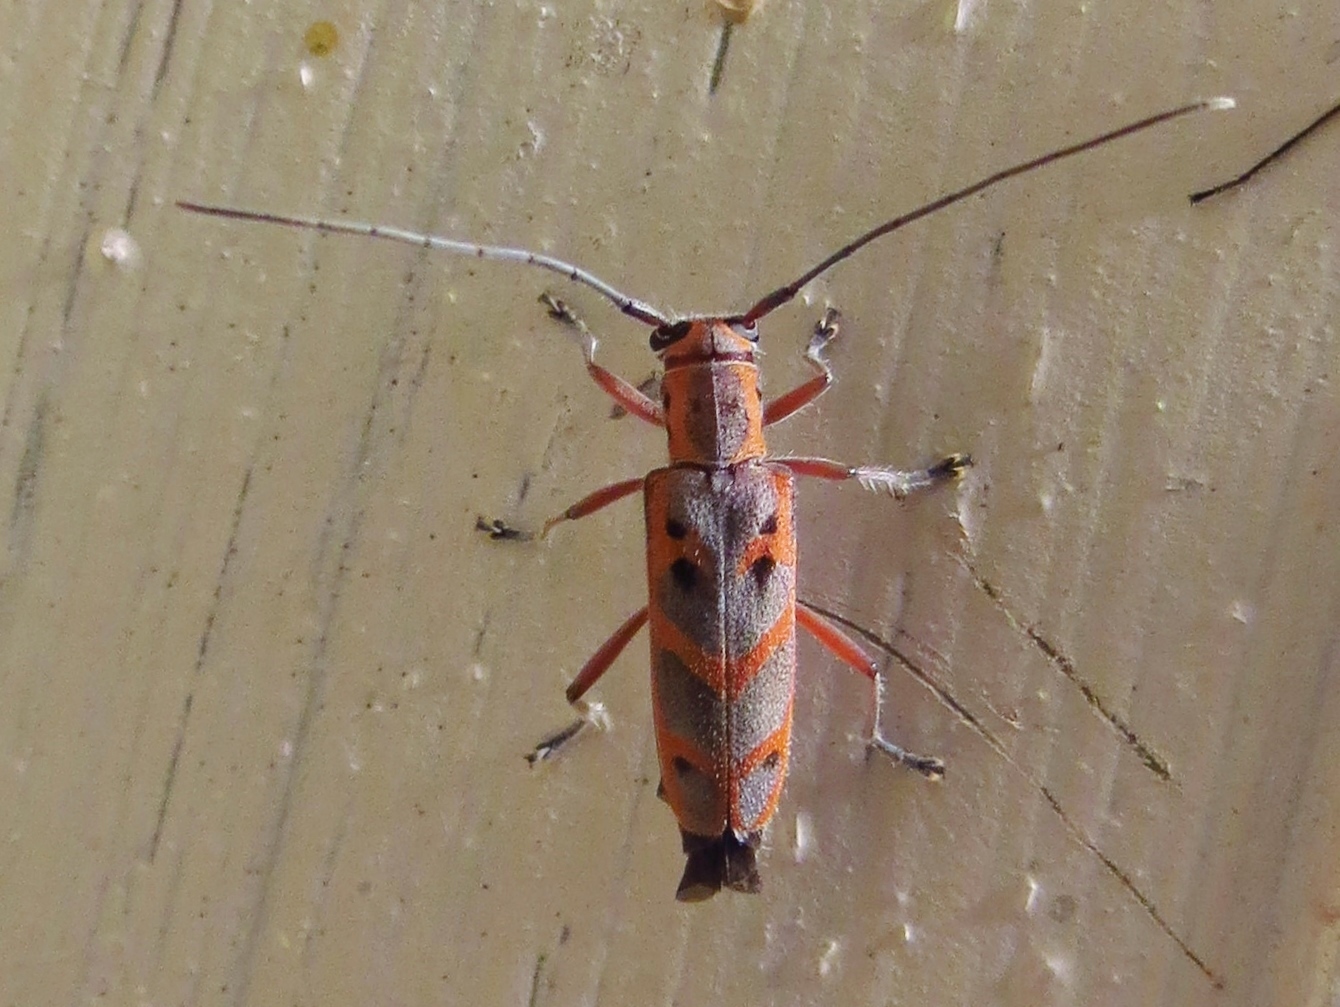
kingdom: Animalia
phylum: Arthropoda
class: Insecta
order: Coleoptera
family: Cerambycidae
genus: Saperda
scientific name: Saperda tridentata
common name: Elm borer
